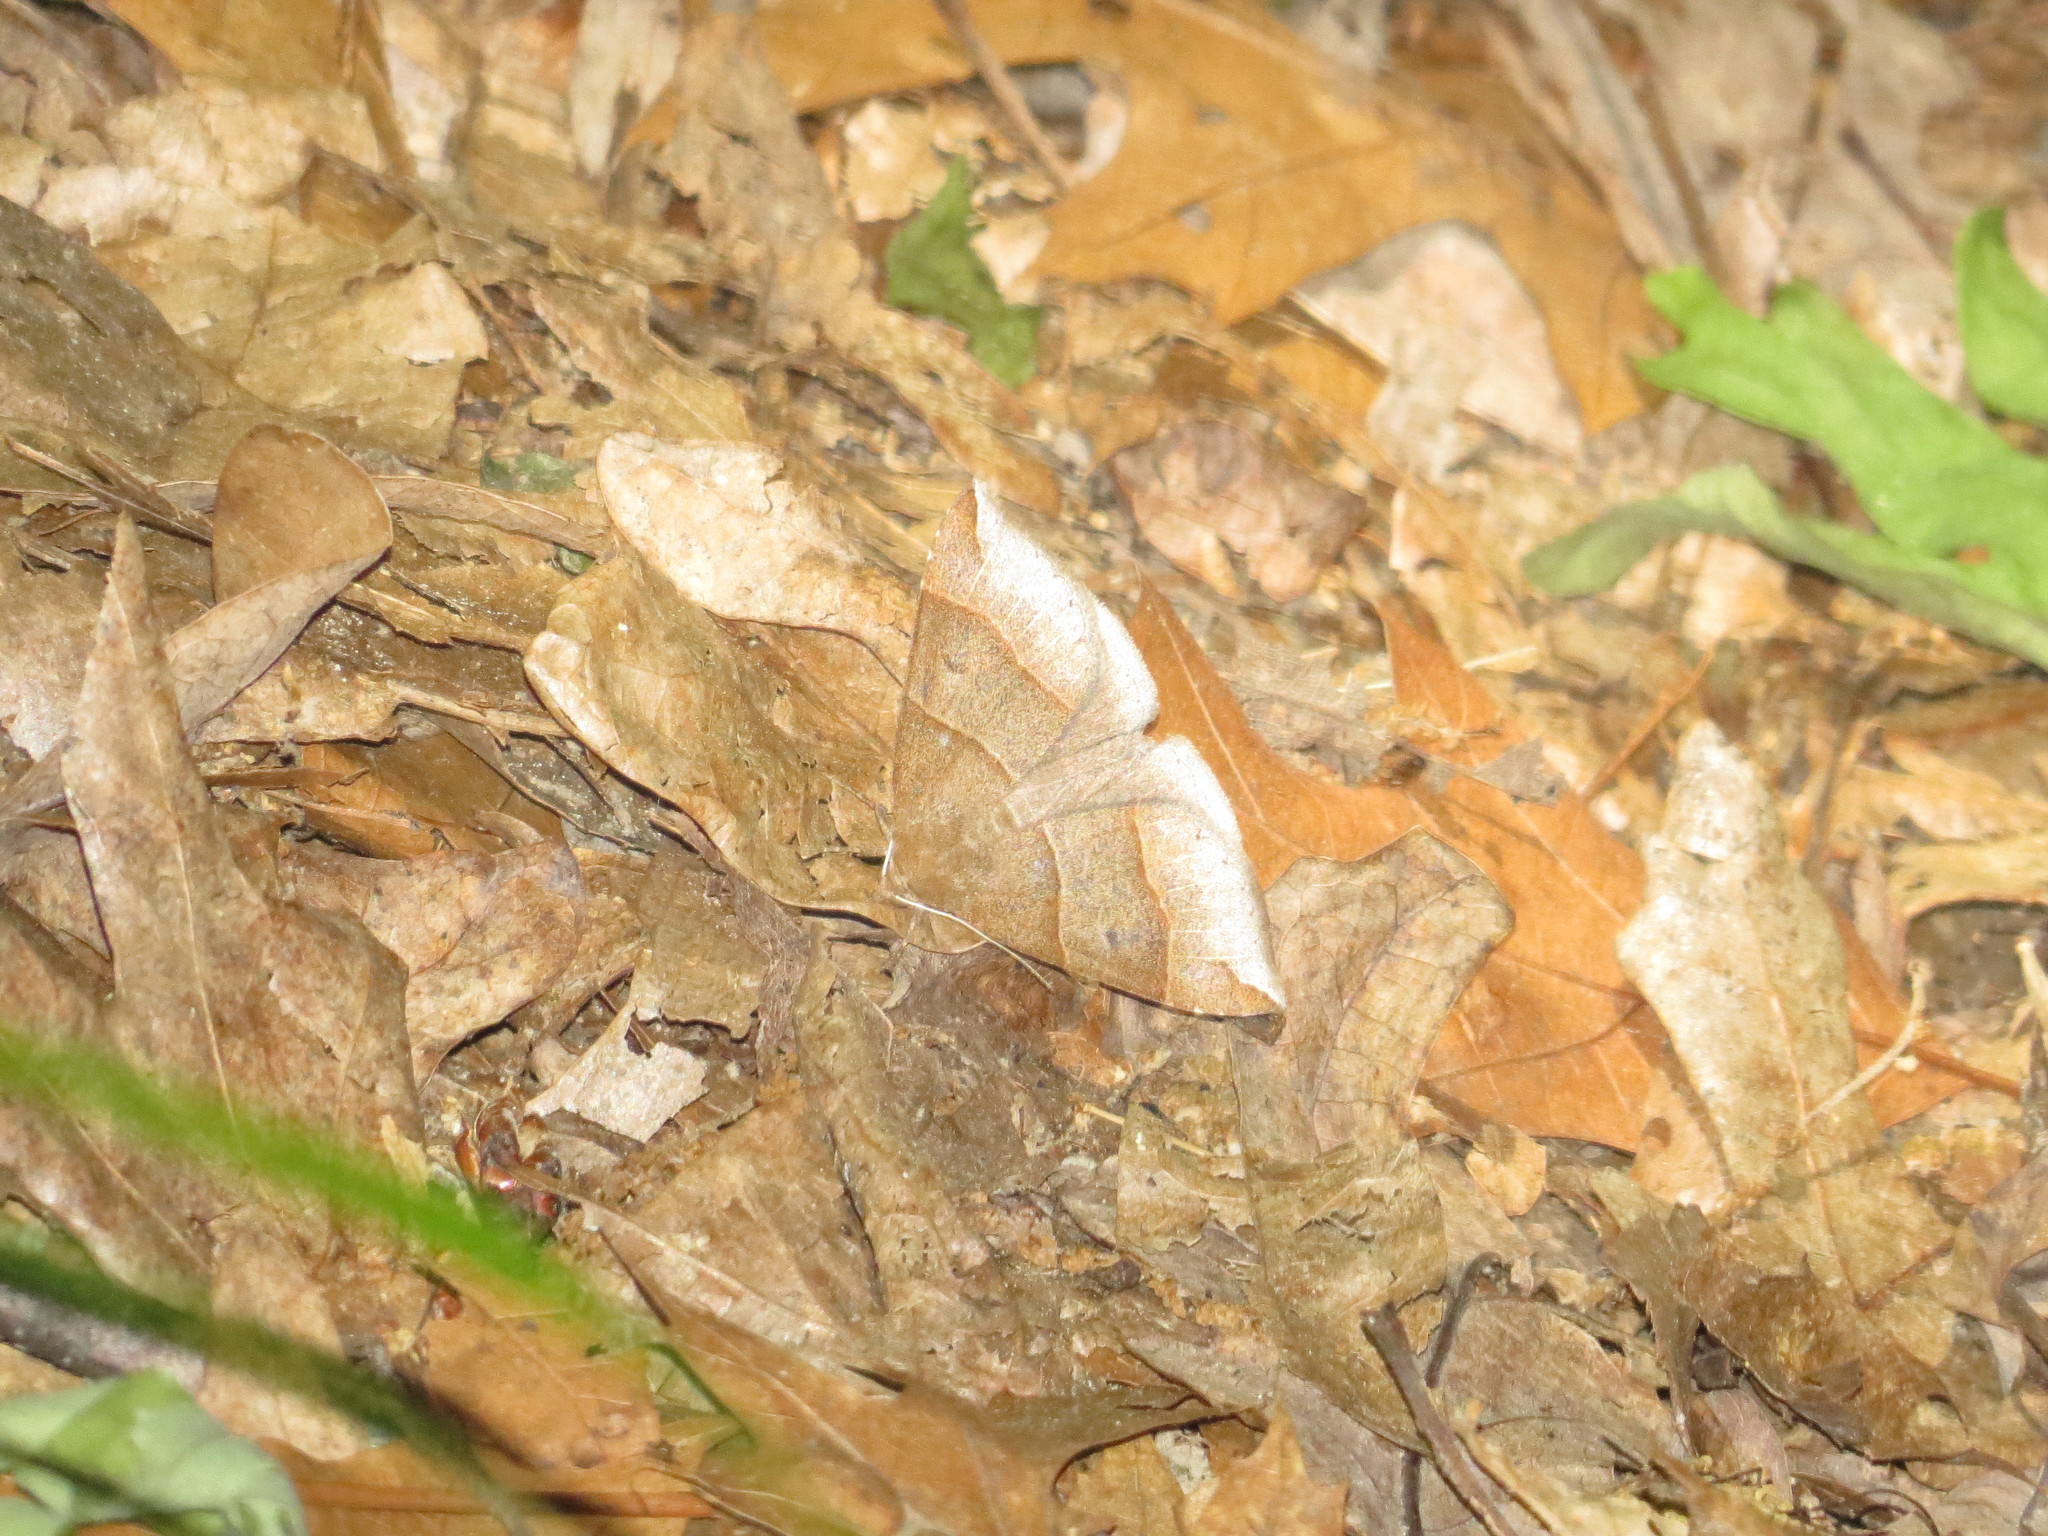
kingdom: Animalia
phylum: Arthropoda
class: Insecta
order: Lepidoptera
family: Erebidae
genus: Parallelia
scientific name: Parallelia bistriaris
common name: Maple looper moth
